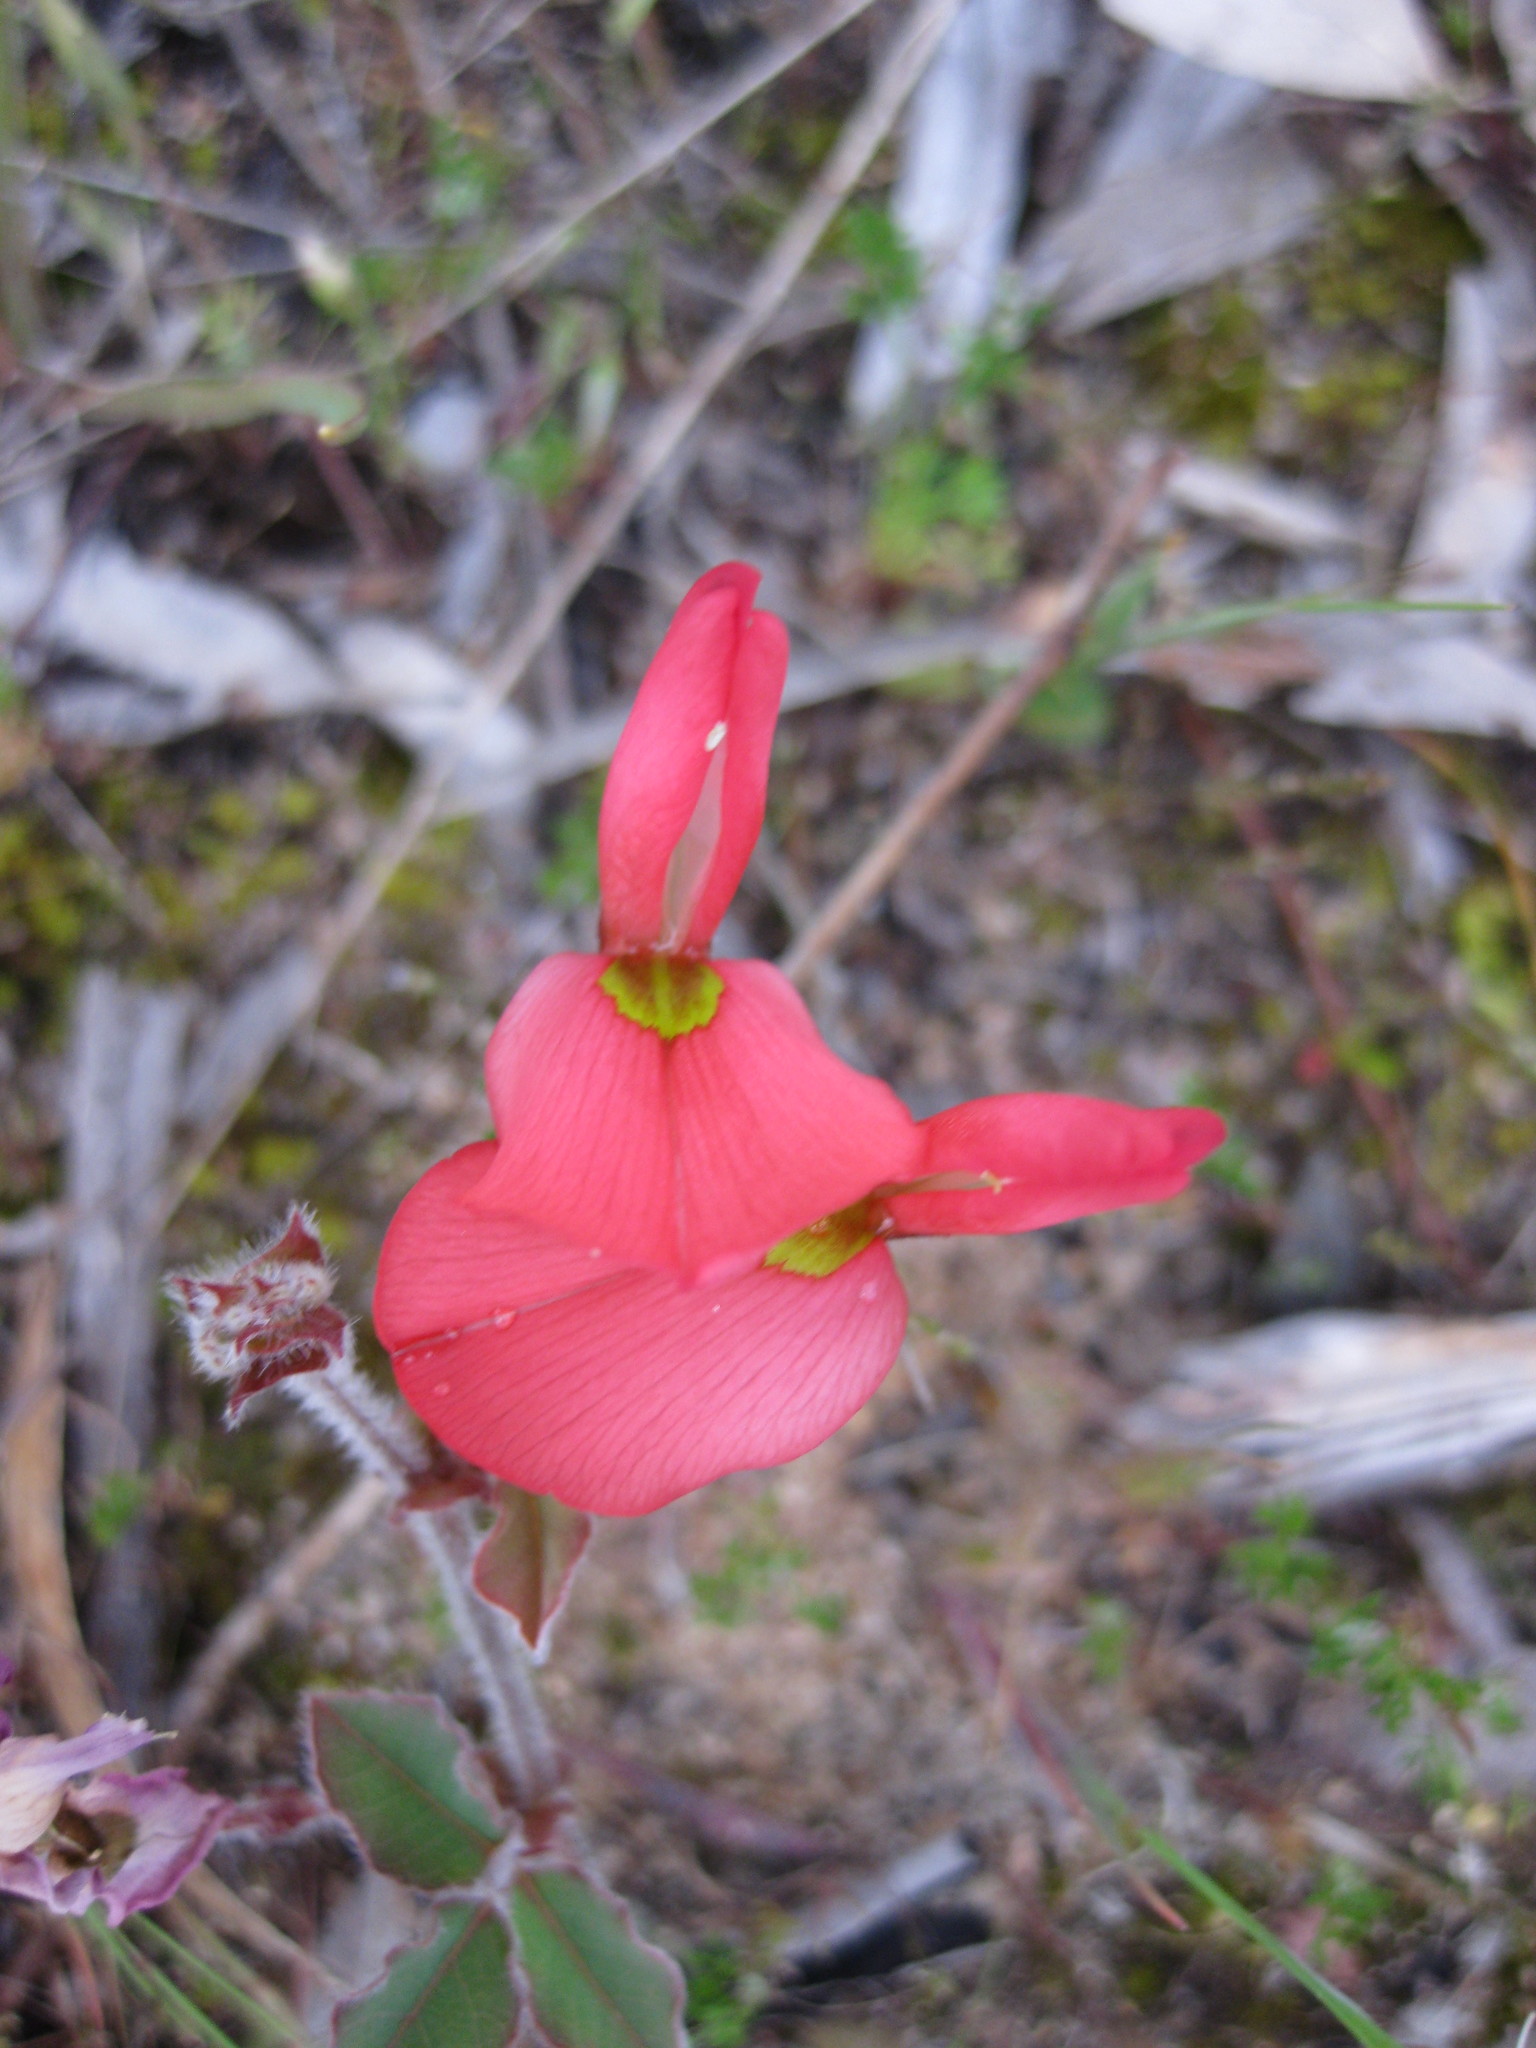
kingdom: Plantae
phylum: Tracheophyta
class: Magnoliopsida
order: Fabales
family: Fabaceae
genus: Kennedia
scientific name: Kennedia prostrata
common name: Running-postman
